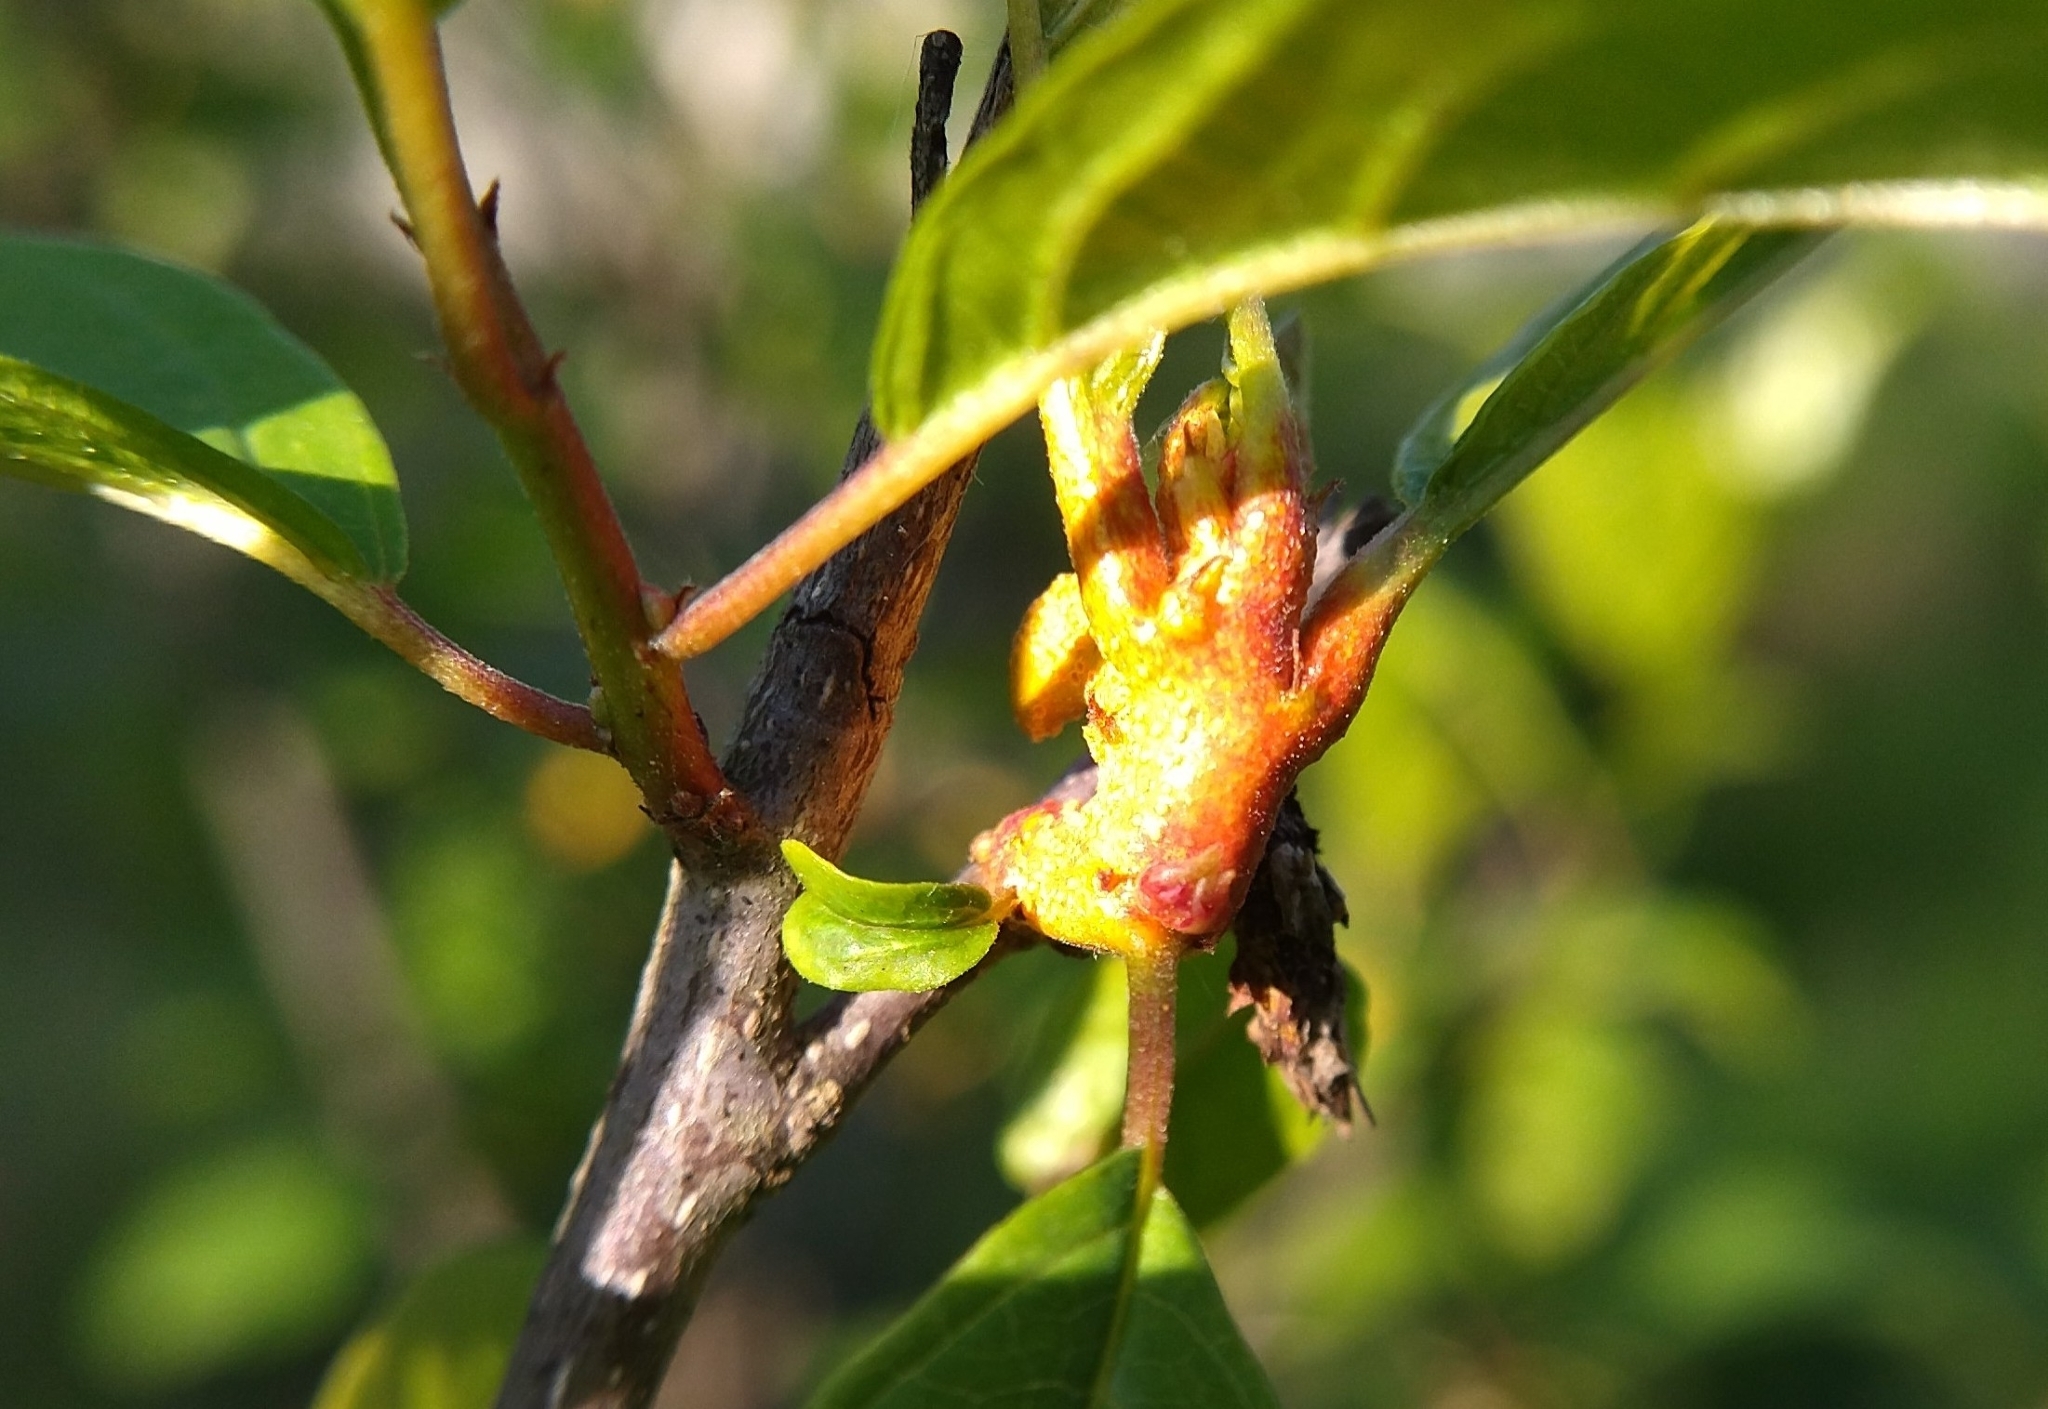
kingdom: Fungi
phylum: Basidiomycota
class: Pucciniomycetes
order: Pucciniales
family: Pucciniaceae
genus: Puccinia
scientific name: Puccinia coronata
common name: Crown rust
